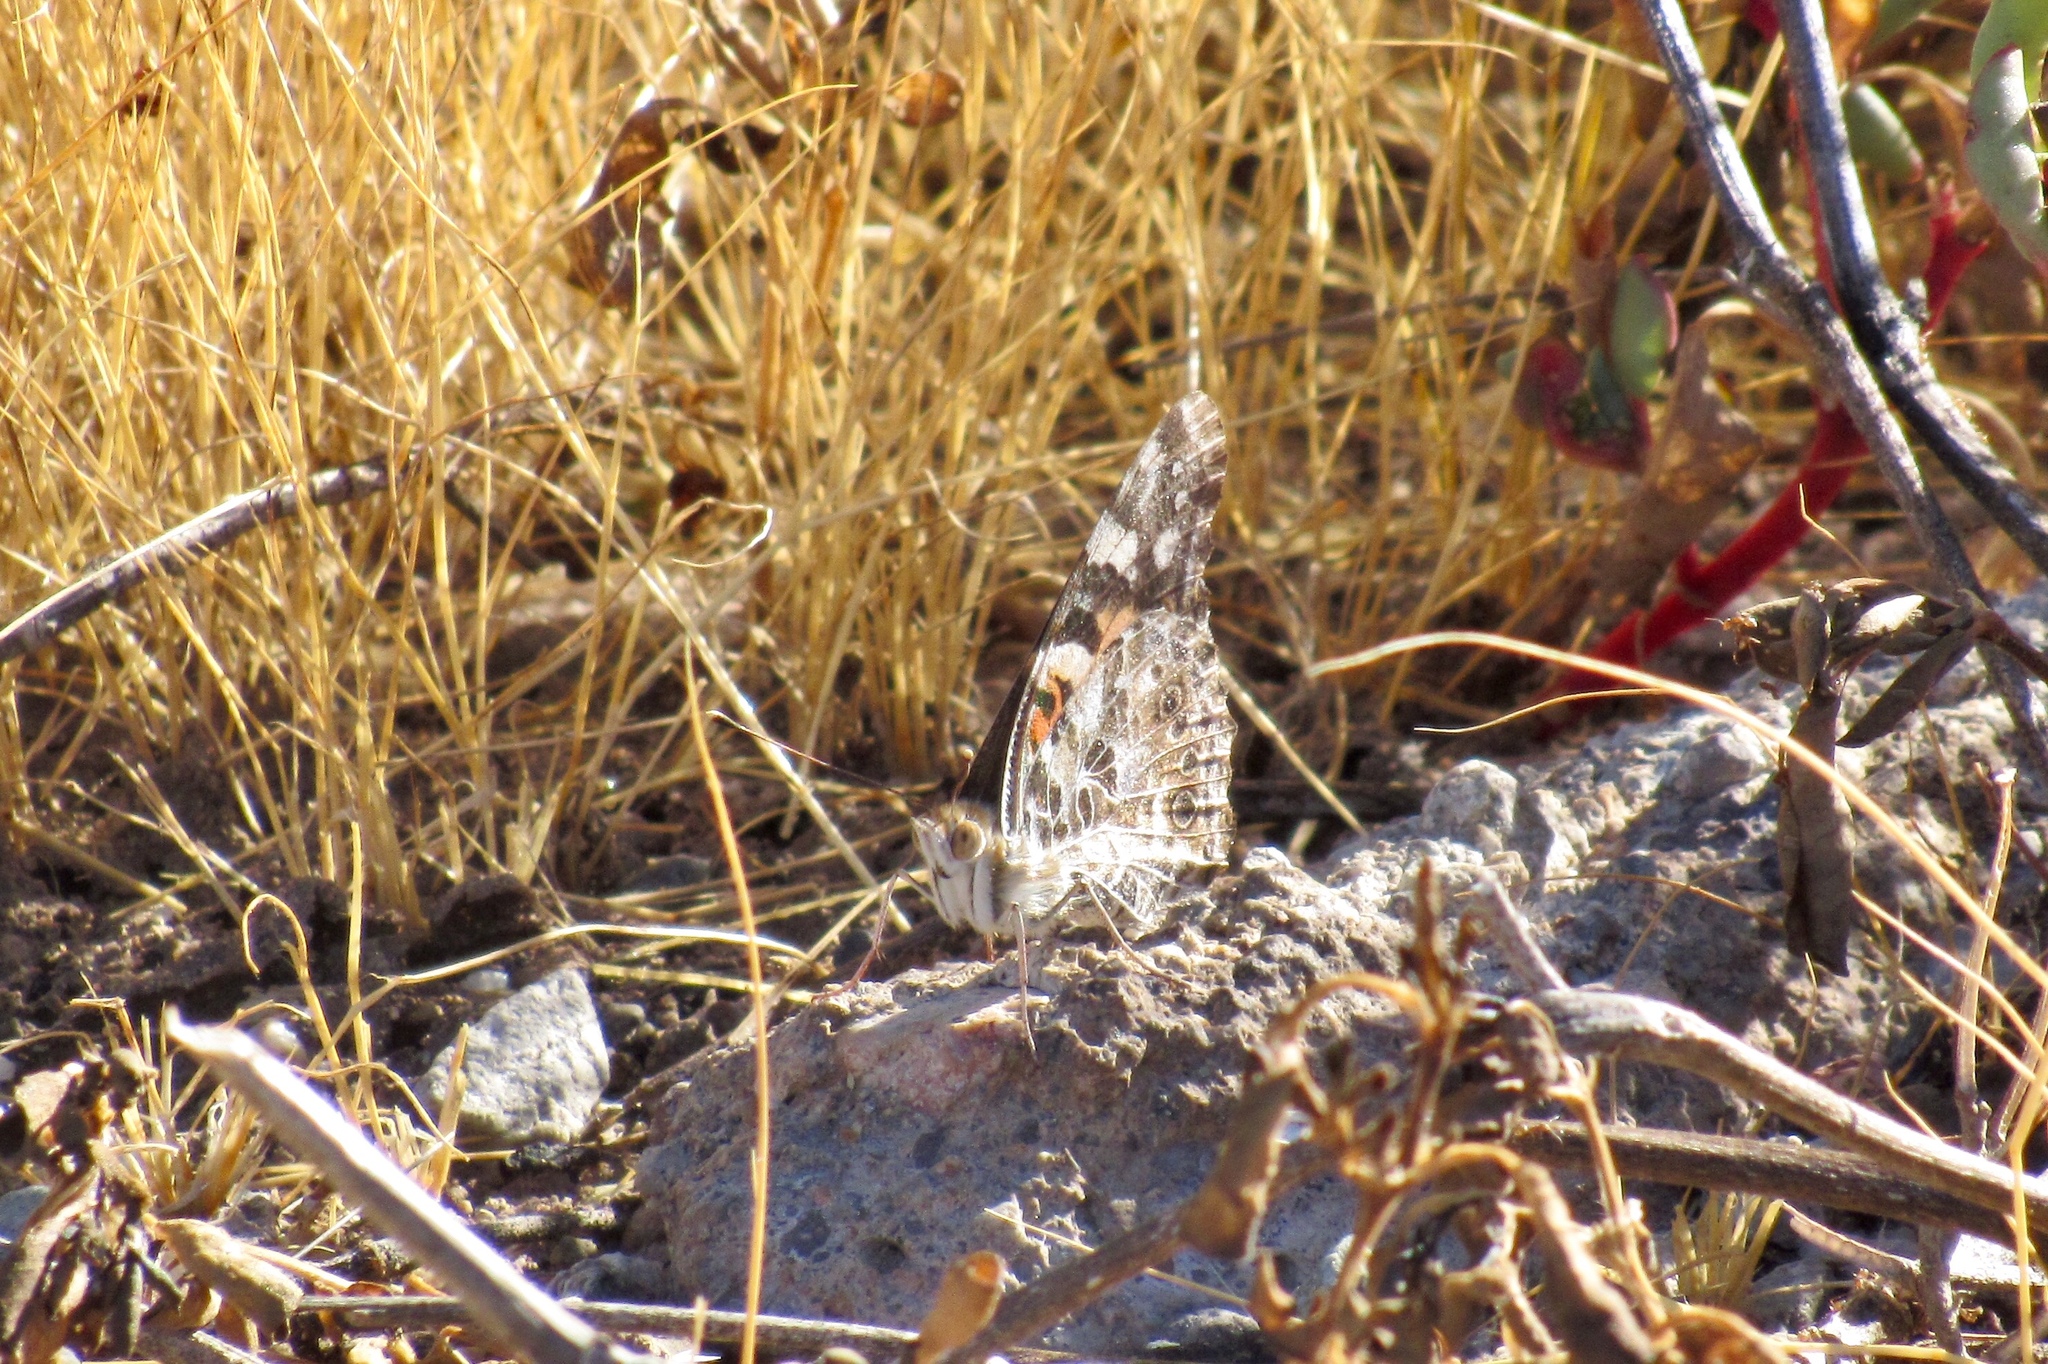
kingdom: Animalia
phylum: Arthropoda
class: Insecta
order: Lepidoptera
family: Nymphalidae
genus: Vanessa
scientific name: Vanessa cardui
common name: Painted lady
